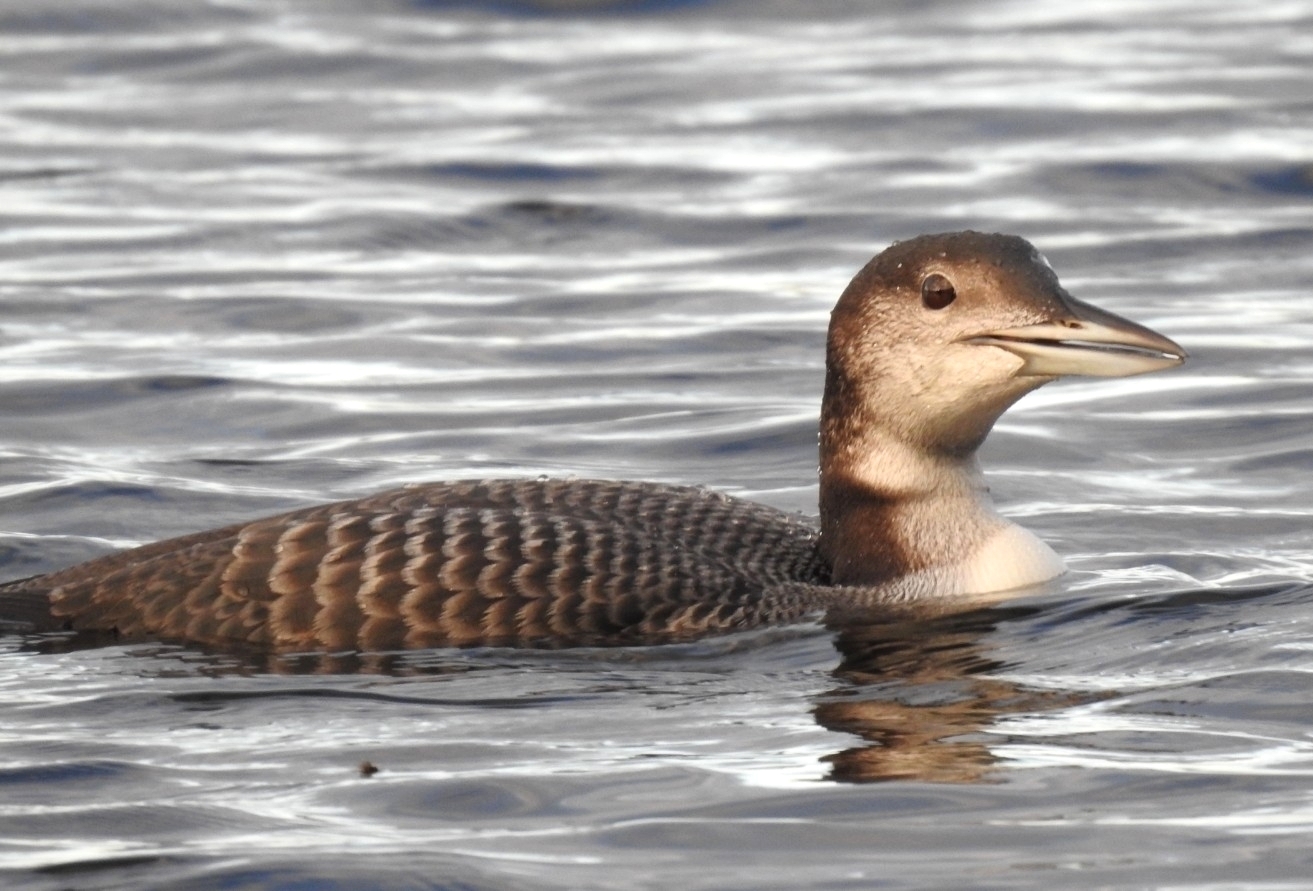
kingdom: Animalia
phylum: Chordata
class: Aves
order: Gaviiformes
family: Gaviidae
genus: Gavia
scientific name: Gavia immer
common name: Common loon
